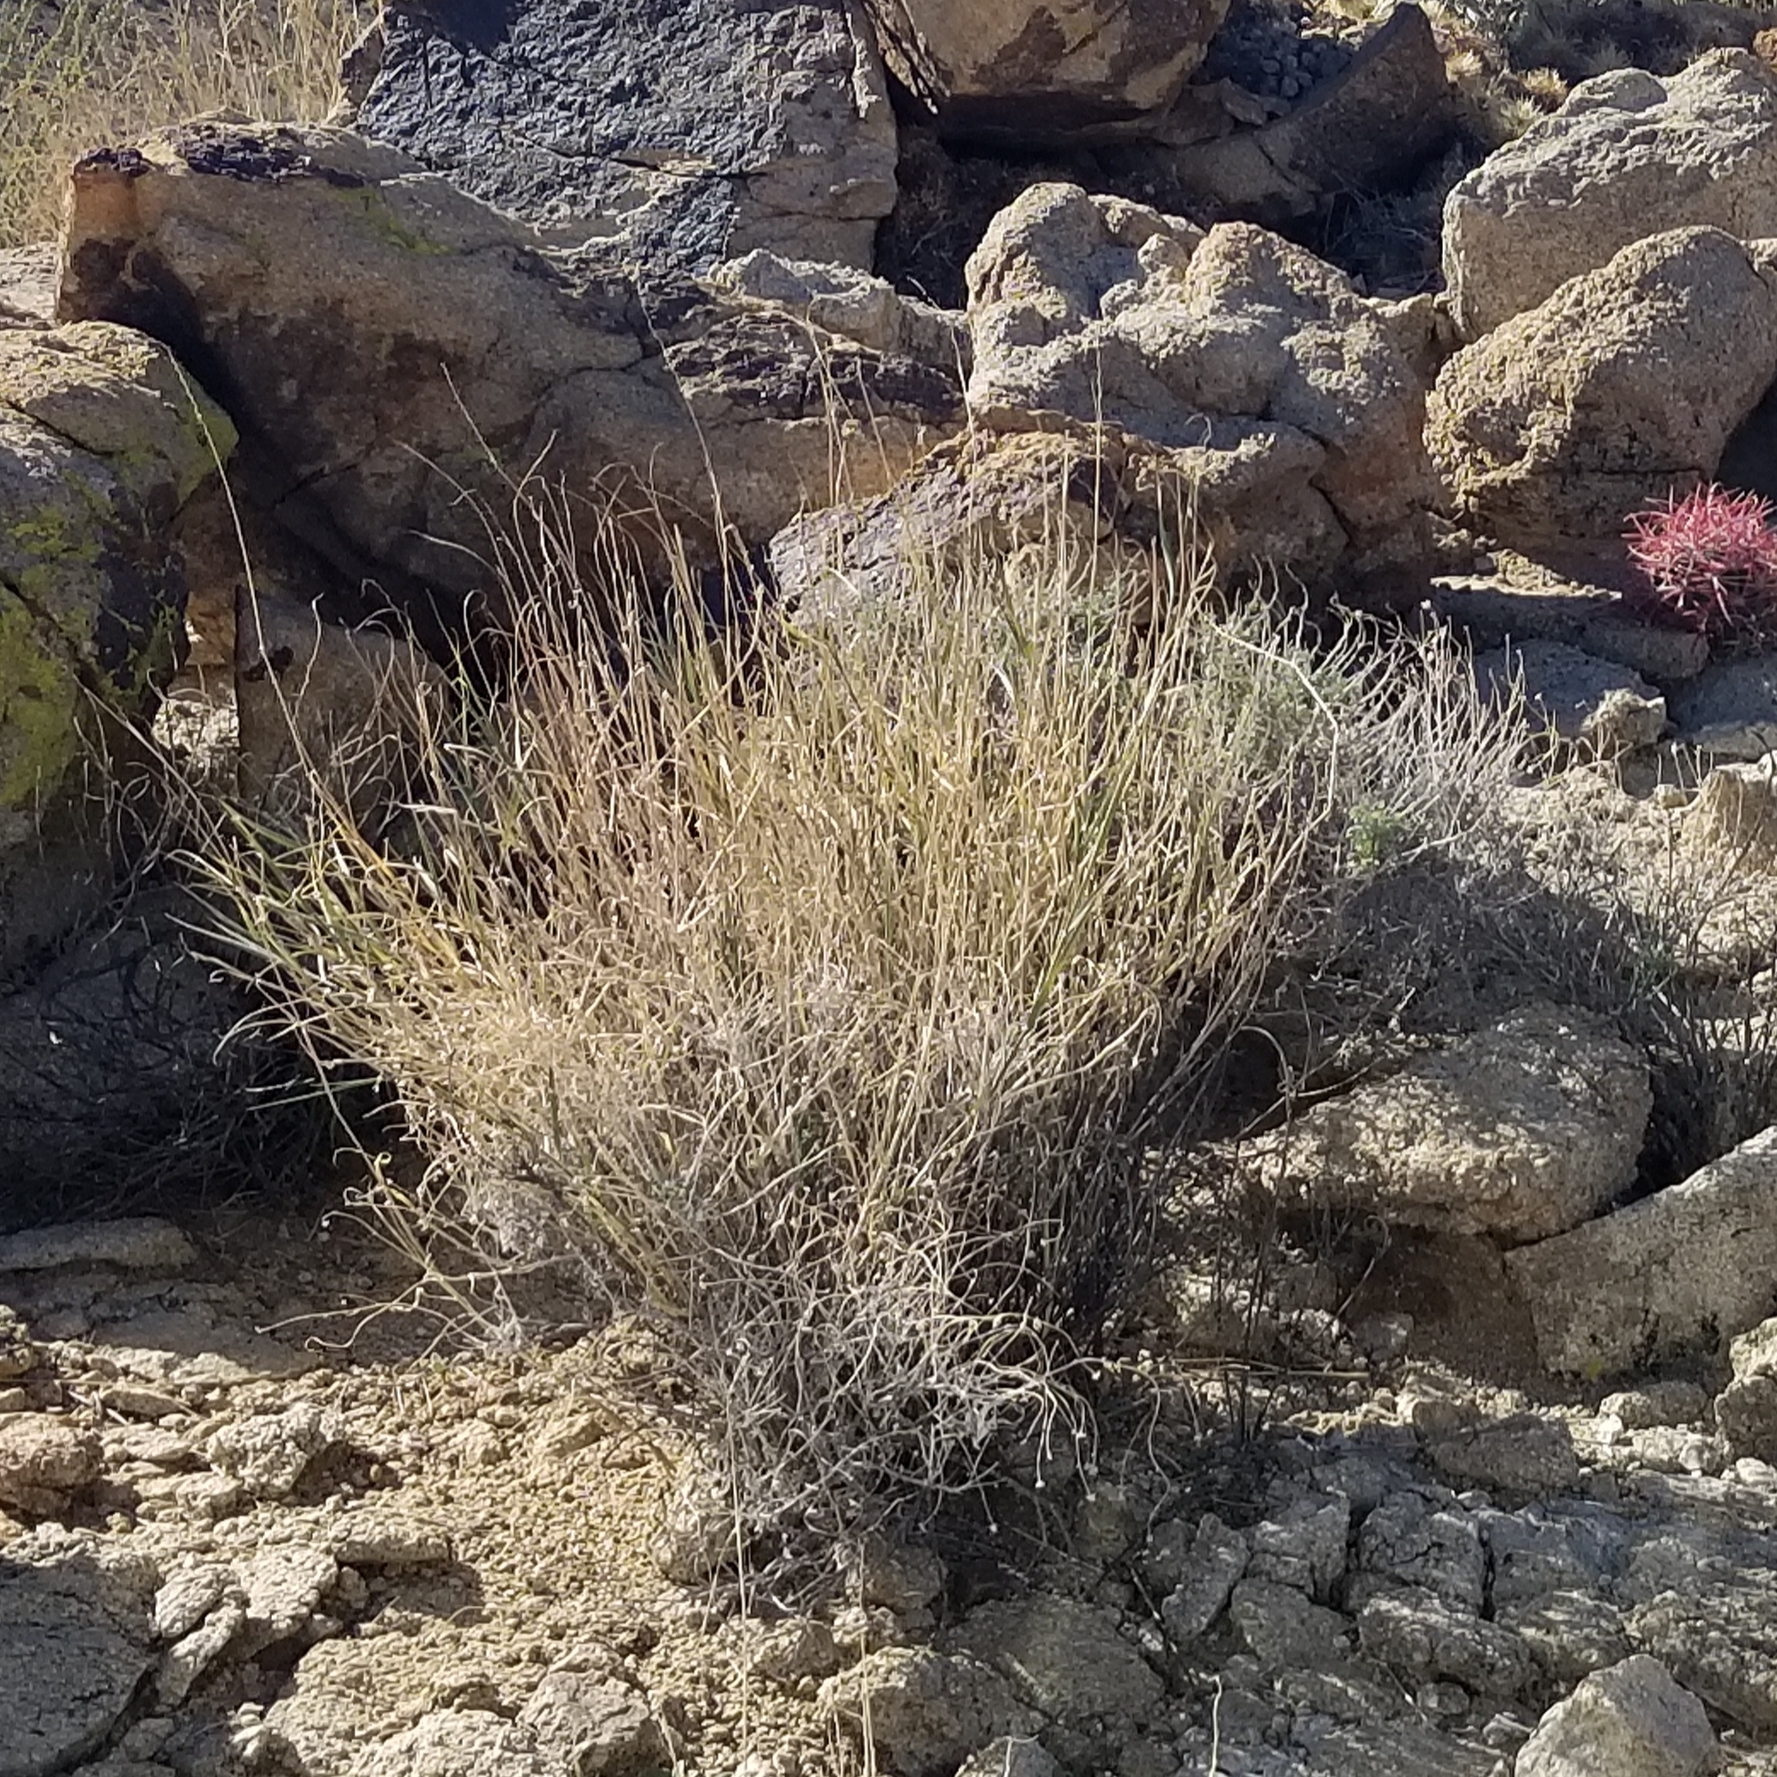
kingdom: Plantae
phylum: Tracheophyta
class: Liliopsida
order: Poales
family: Poaceae
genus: Hilaria
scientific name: Hilaria rigida
